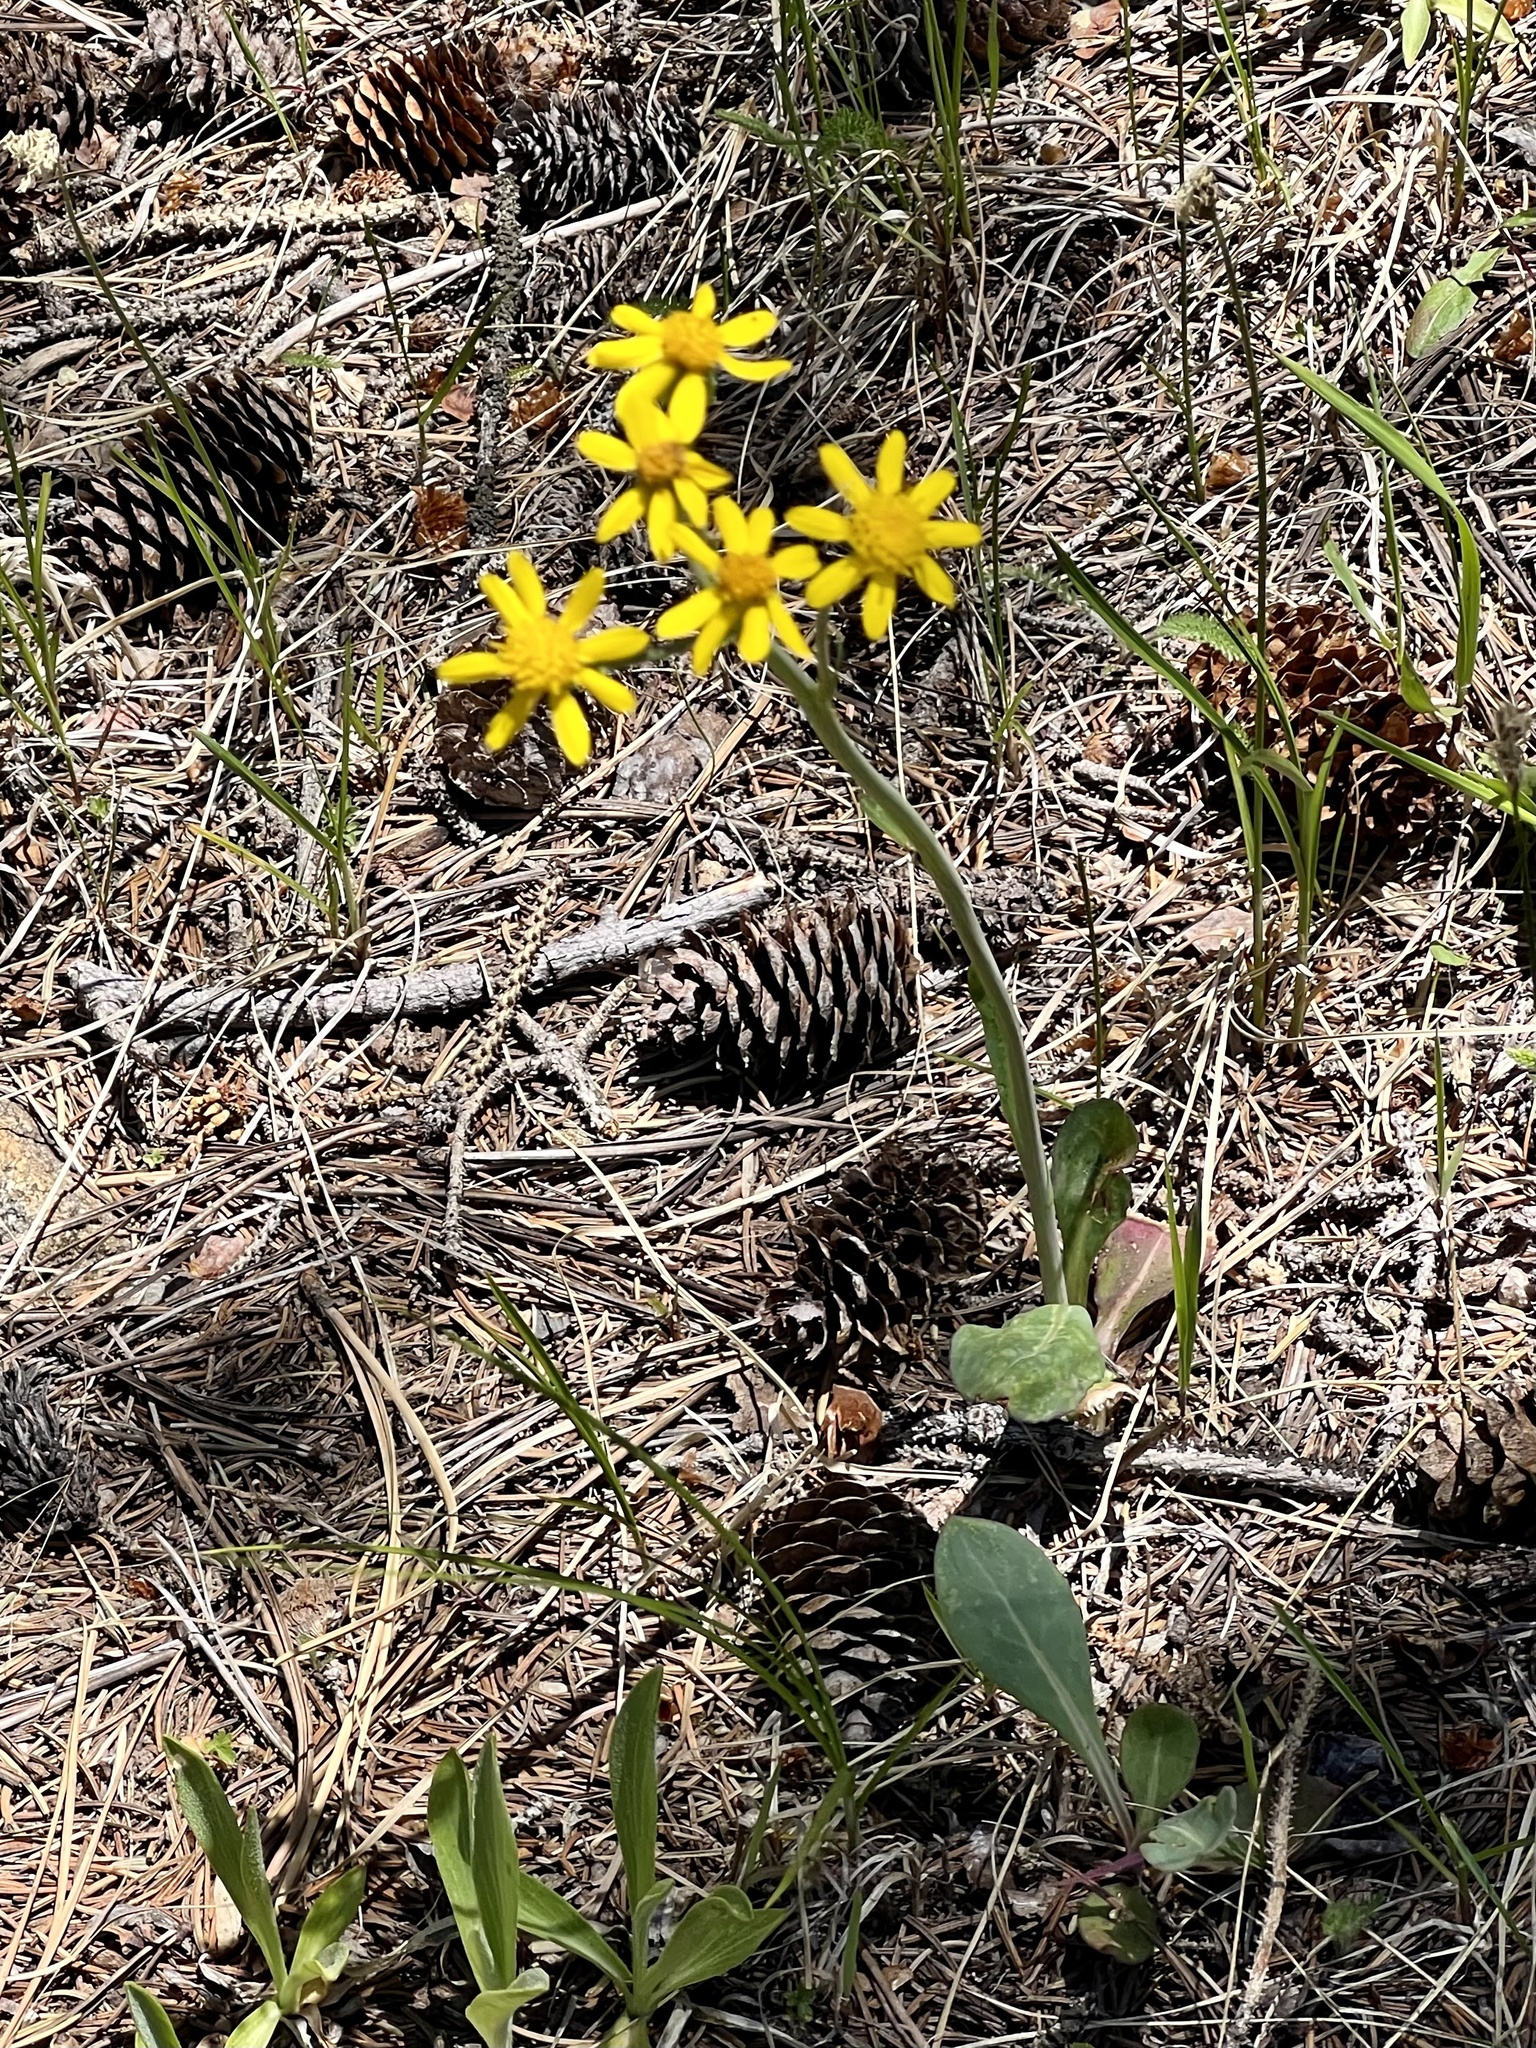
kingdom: Plantae
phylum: Tracheophyta
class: Magnoliopsida
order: Asterales
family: Asteraceae
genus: Packera
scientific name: Packera neomexicana
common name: New mexico butterweed
